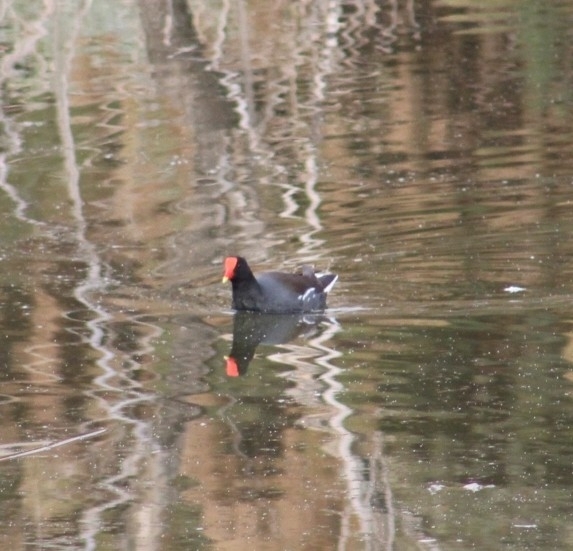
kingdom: Animalia
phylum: Chordata
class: Aves
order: Gruiformes
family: Rallidae
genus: Gallinula
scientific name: Gallinula chloropus
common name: Common moorhen
